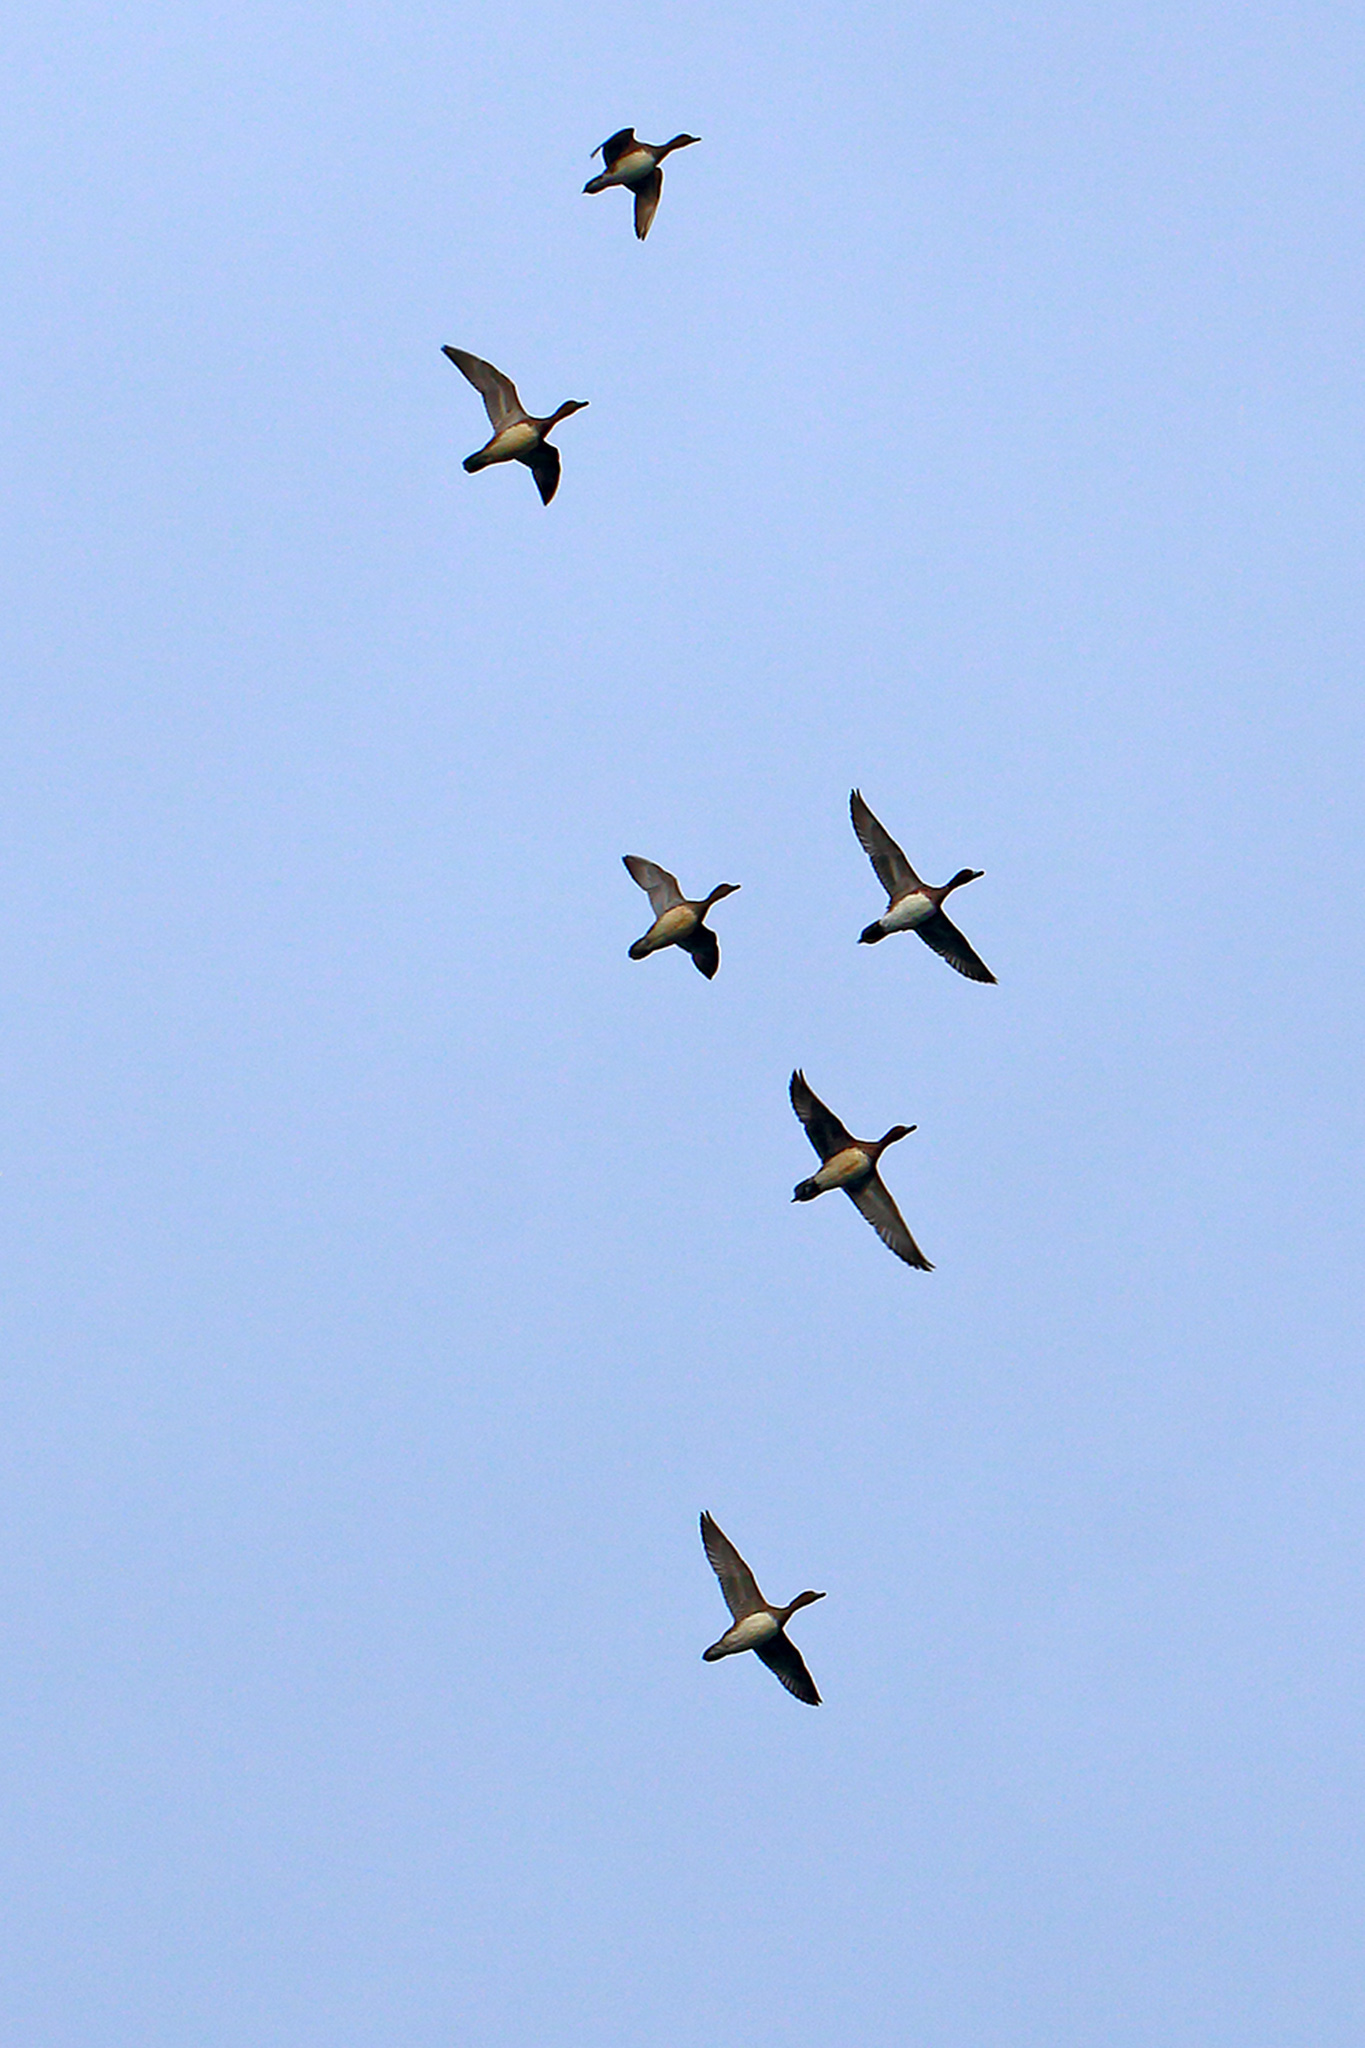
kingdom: Animalia
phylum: Chordata
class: Aves
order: Anseriformes
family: Anatidae
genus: Mareca
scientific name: Mareca penelope
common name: Eurasian wigeon
